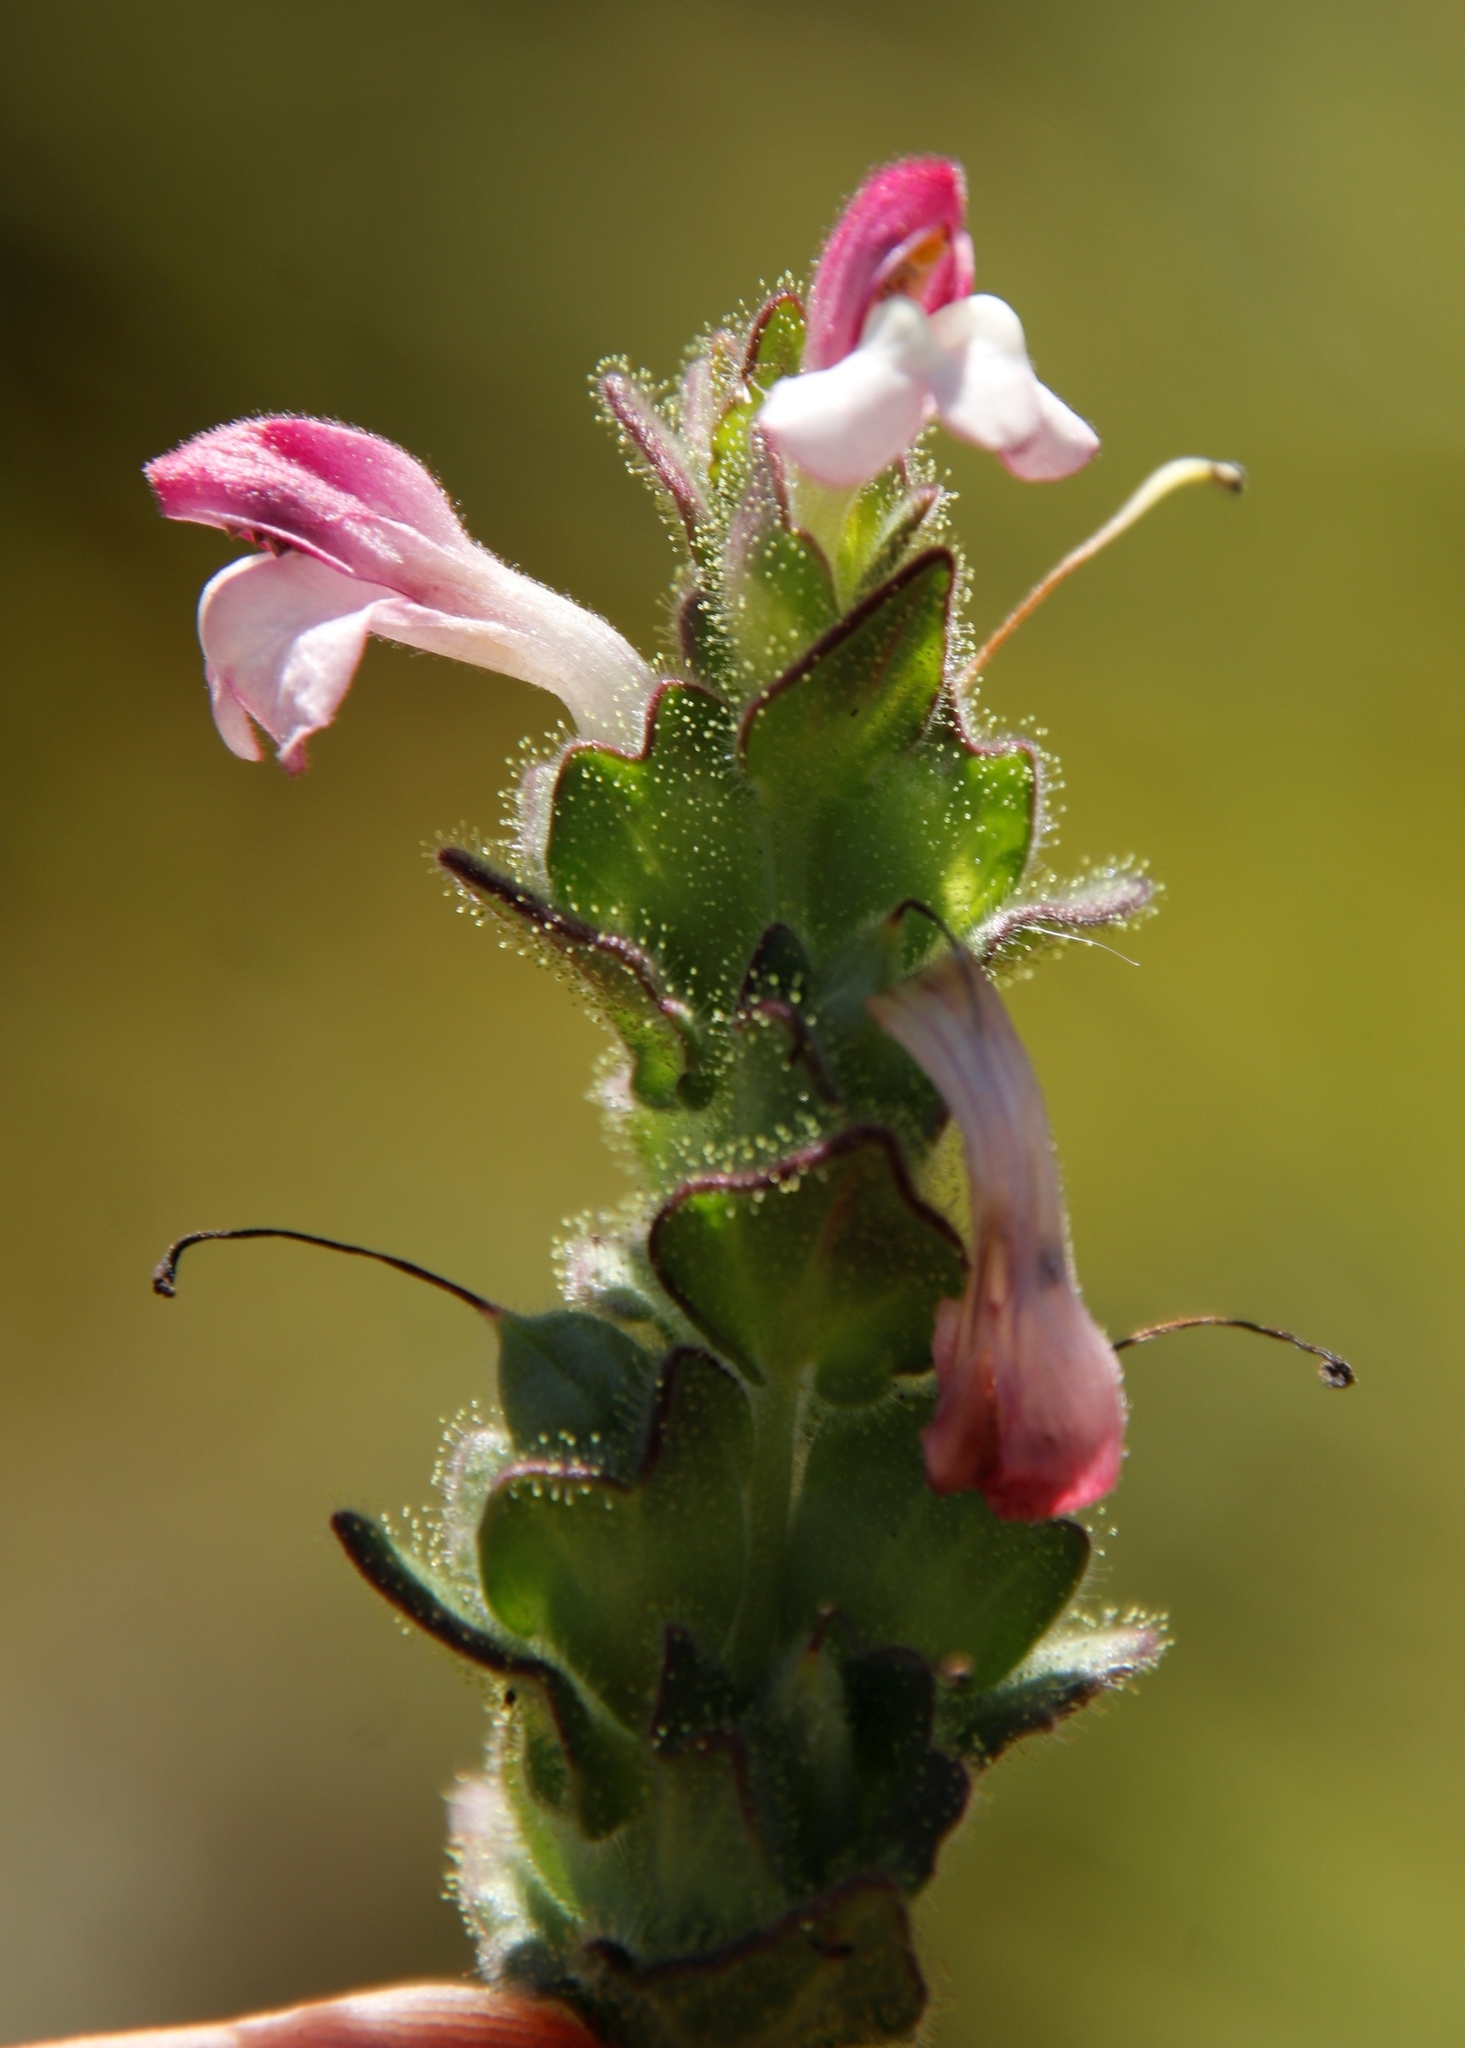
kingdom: Plantae
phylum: Tracheophyta
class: Magnoliopsida
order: Lamiales
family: Orobanchaceae
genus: Bellardia
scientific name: Bellardia trixago
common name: Mediterranean lineseed
